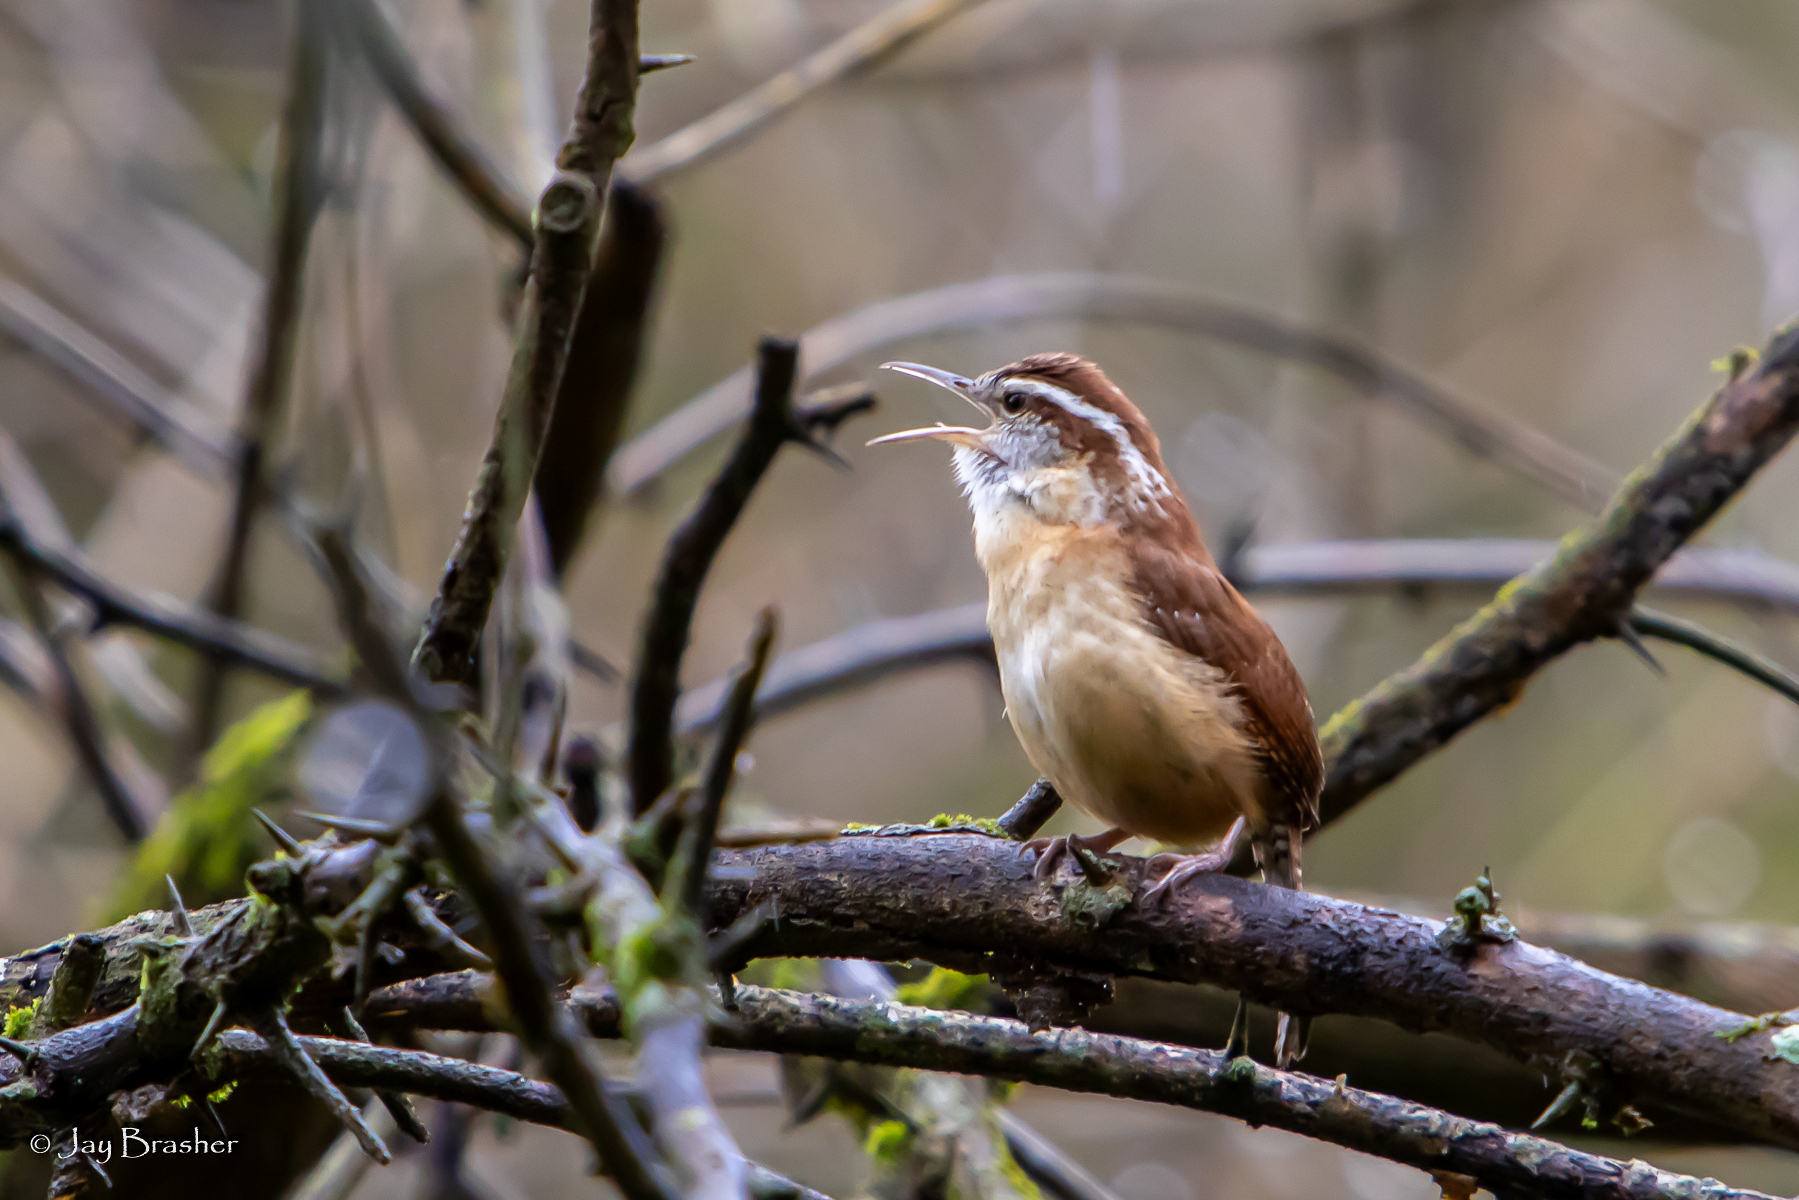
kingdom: Animalia
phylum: Chordata
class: Aves
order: Passeriformes
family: Troglodytidae
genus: Thryothorus
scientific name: Thryothorus ludovicianus
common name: Carolina wren
